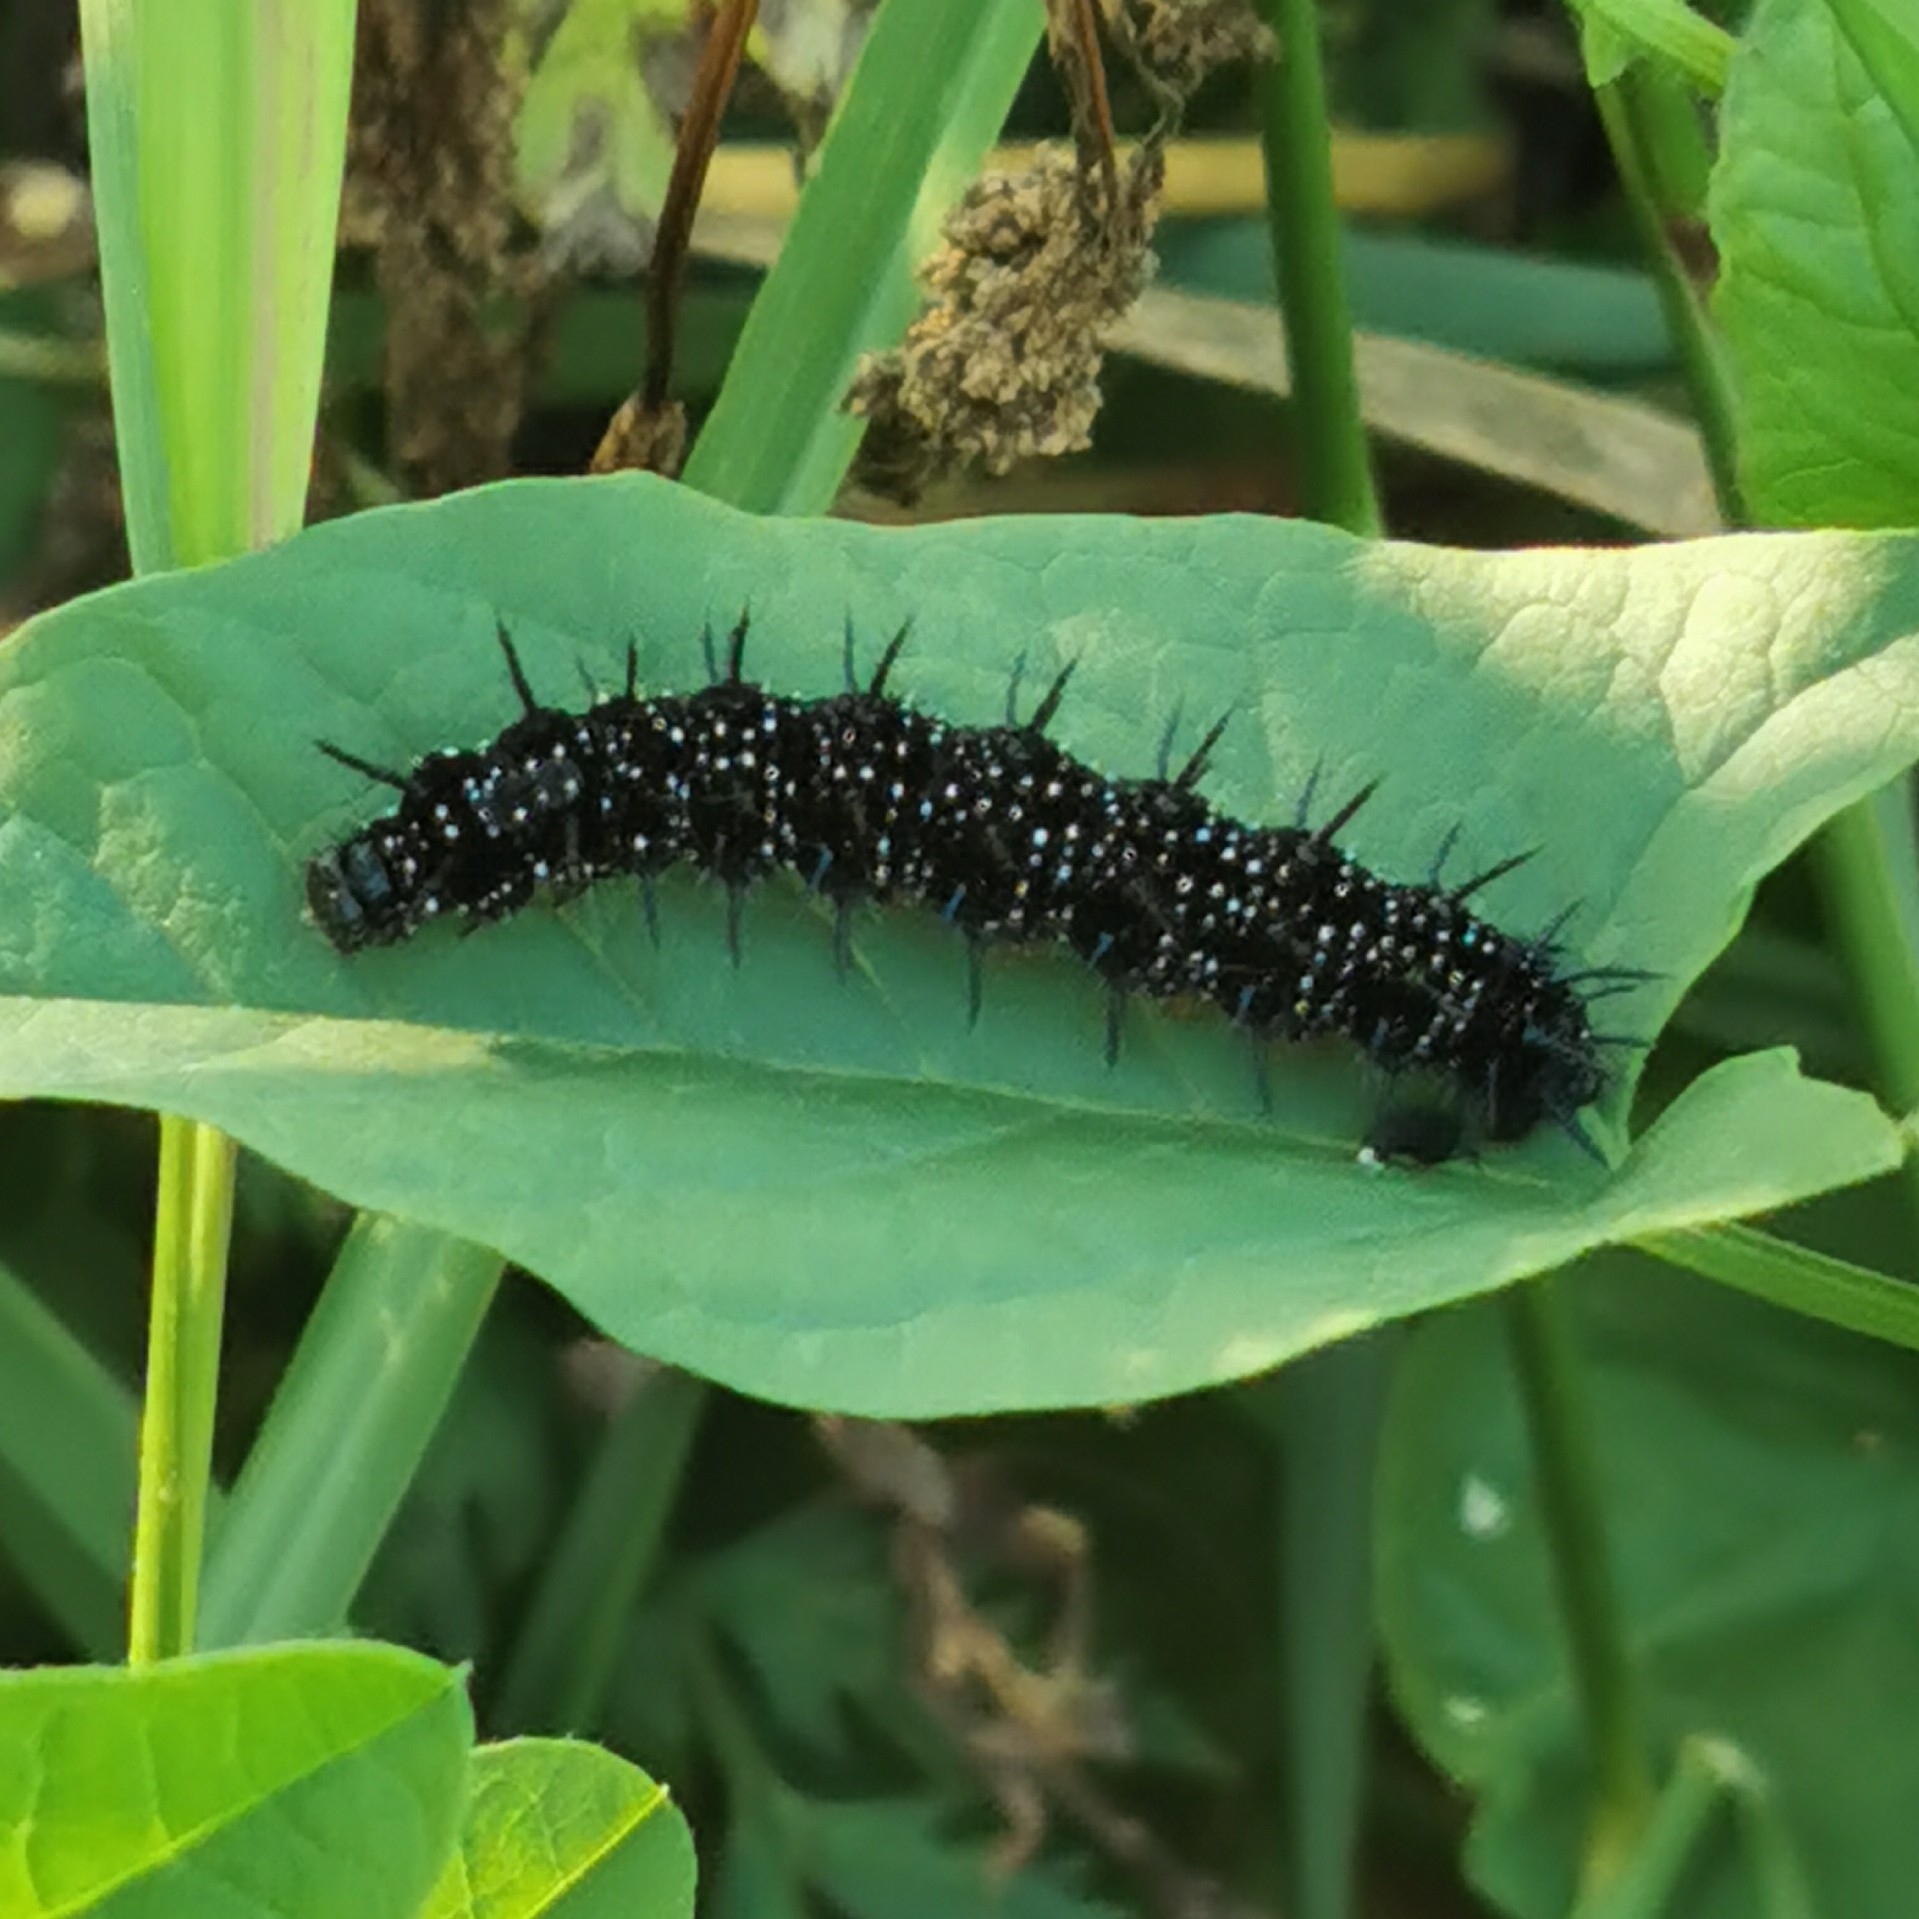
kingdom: Animalia
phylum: Arthropoda
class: Insecta
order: Lepidoptera
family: Nymphalidae
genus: Aglais
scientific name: Aglais io
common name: Peacock
